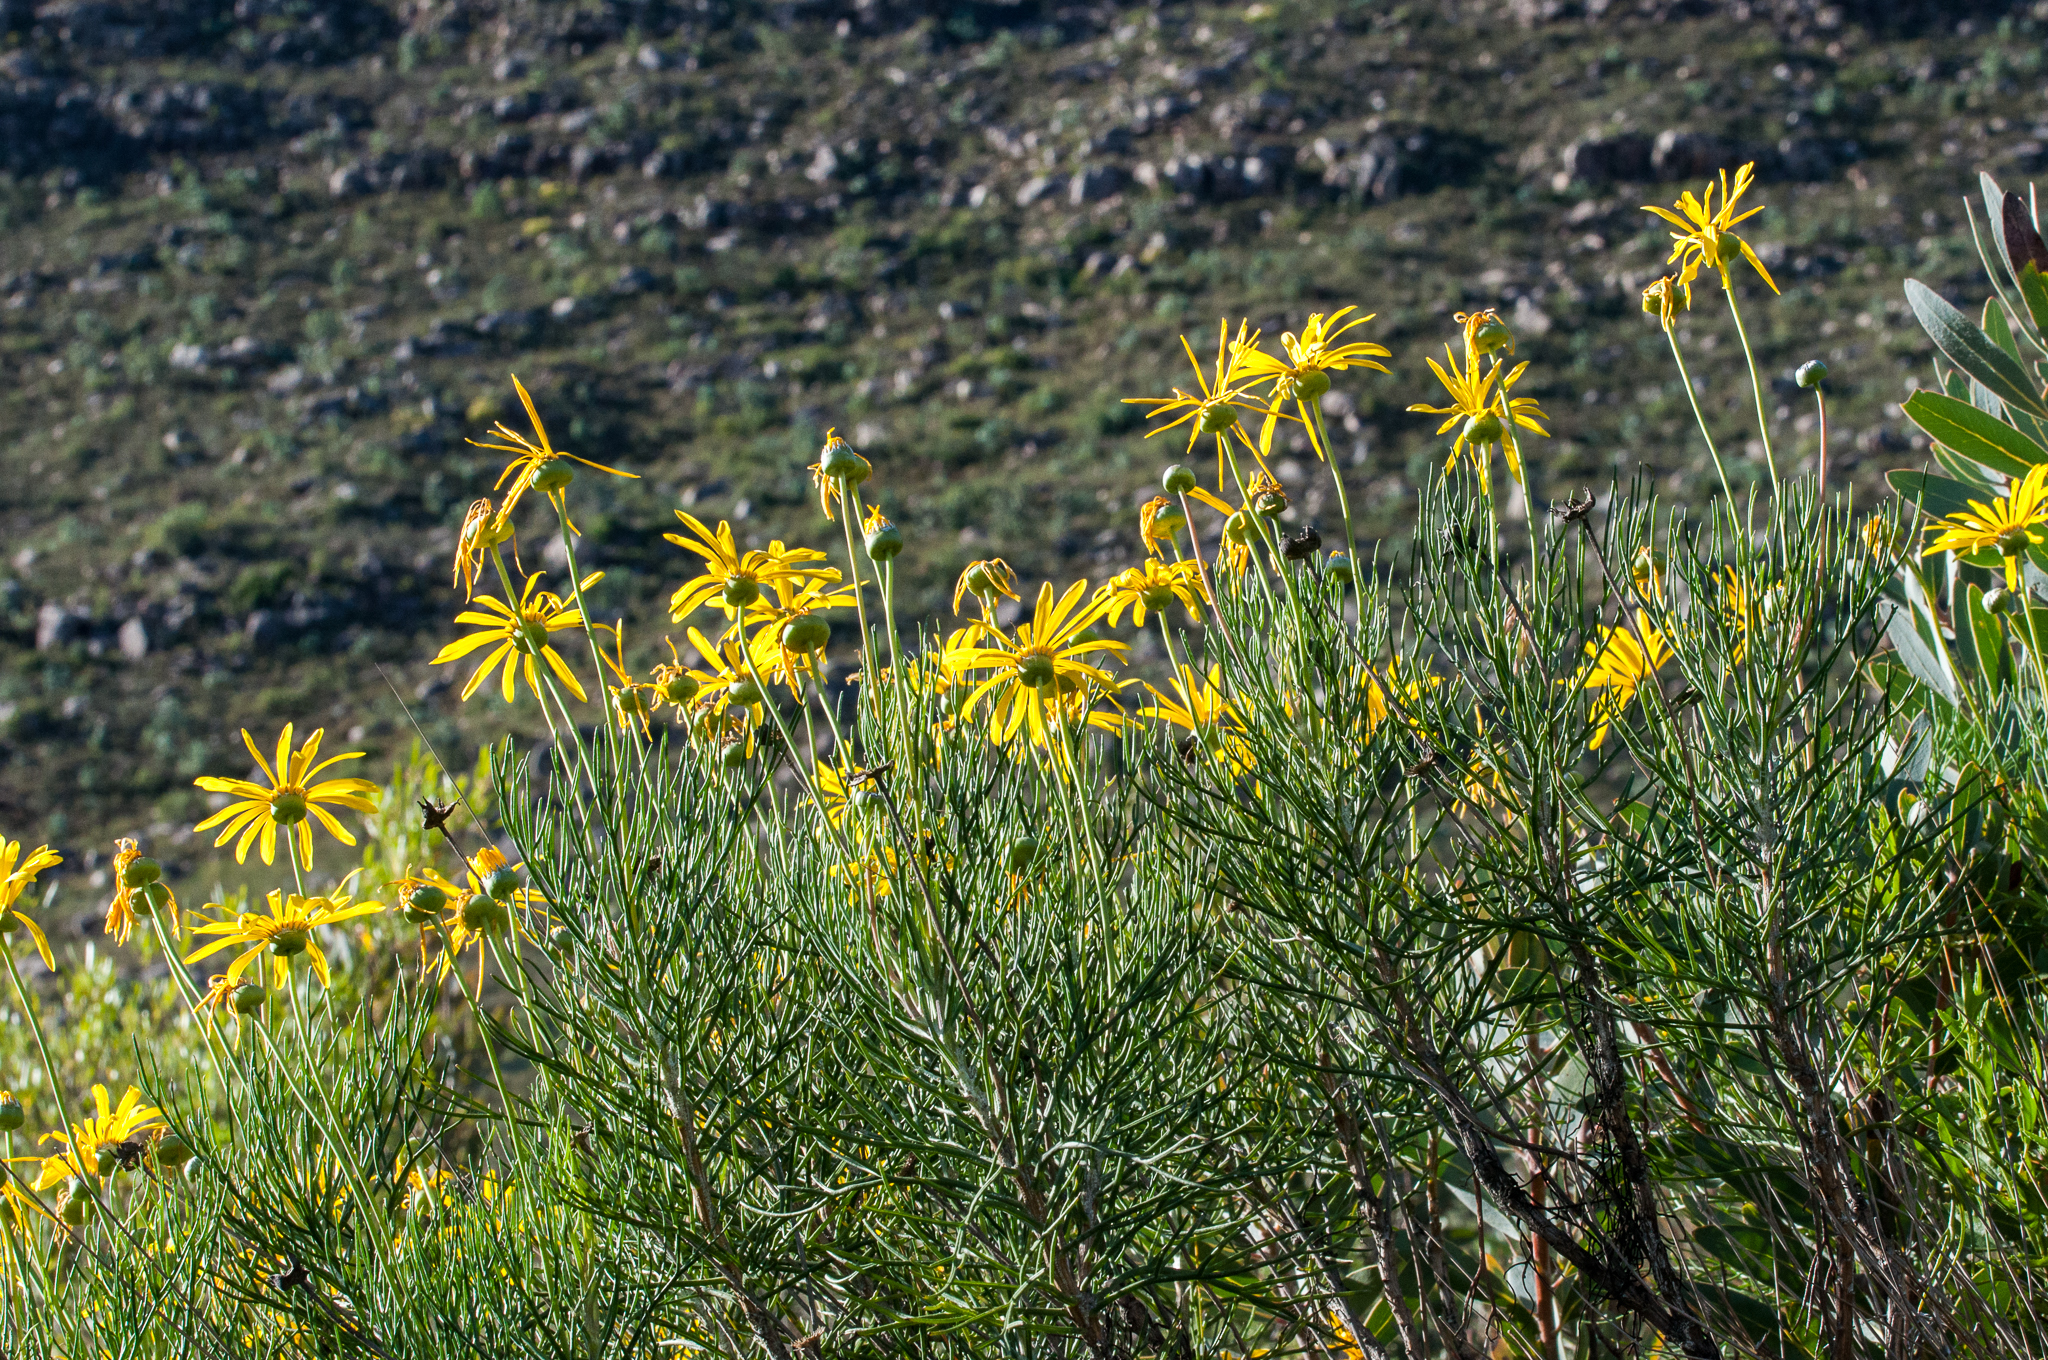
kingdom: Plantae
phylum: Tracheophyta
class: Magnoliopsida
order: Asterales
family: Asteraceae
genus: Euryops
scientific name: Euryops speciosissimus
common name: Clanwilliam daisy
